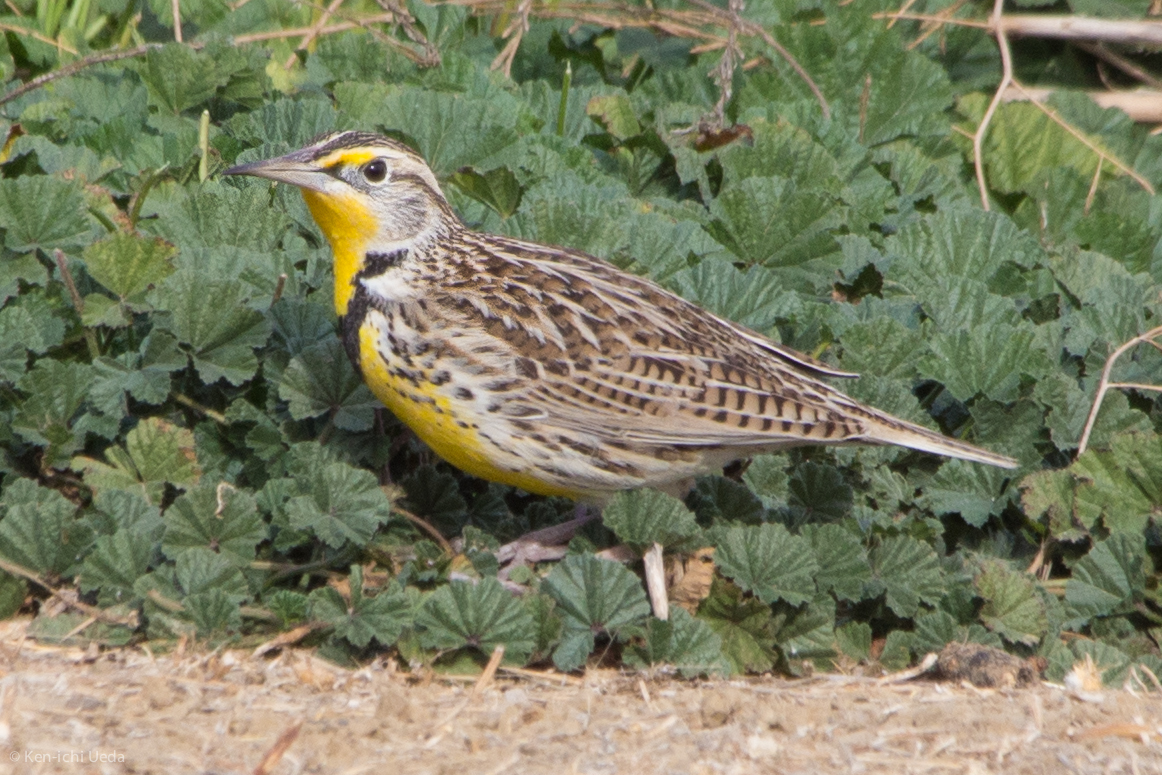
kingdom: Animalia
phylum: Chordata
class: Aves
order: Passeriformes
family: Icteridae
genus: Sturnella
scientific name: Sturnella neglecta
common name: Western meadowlark
